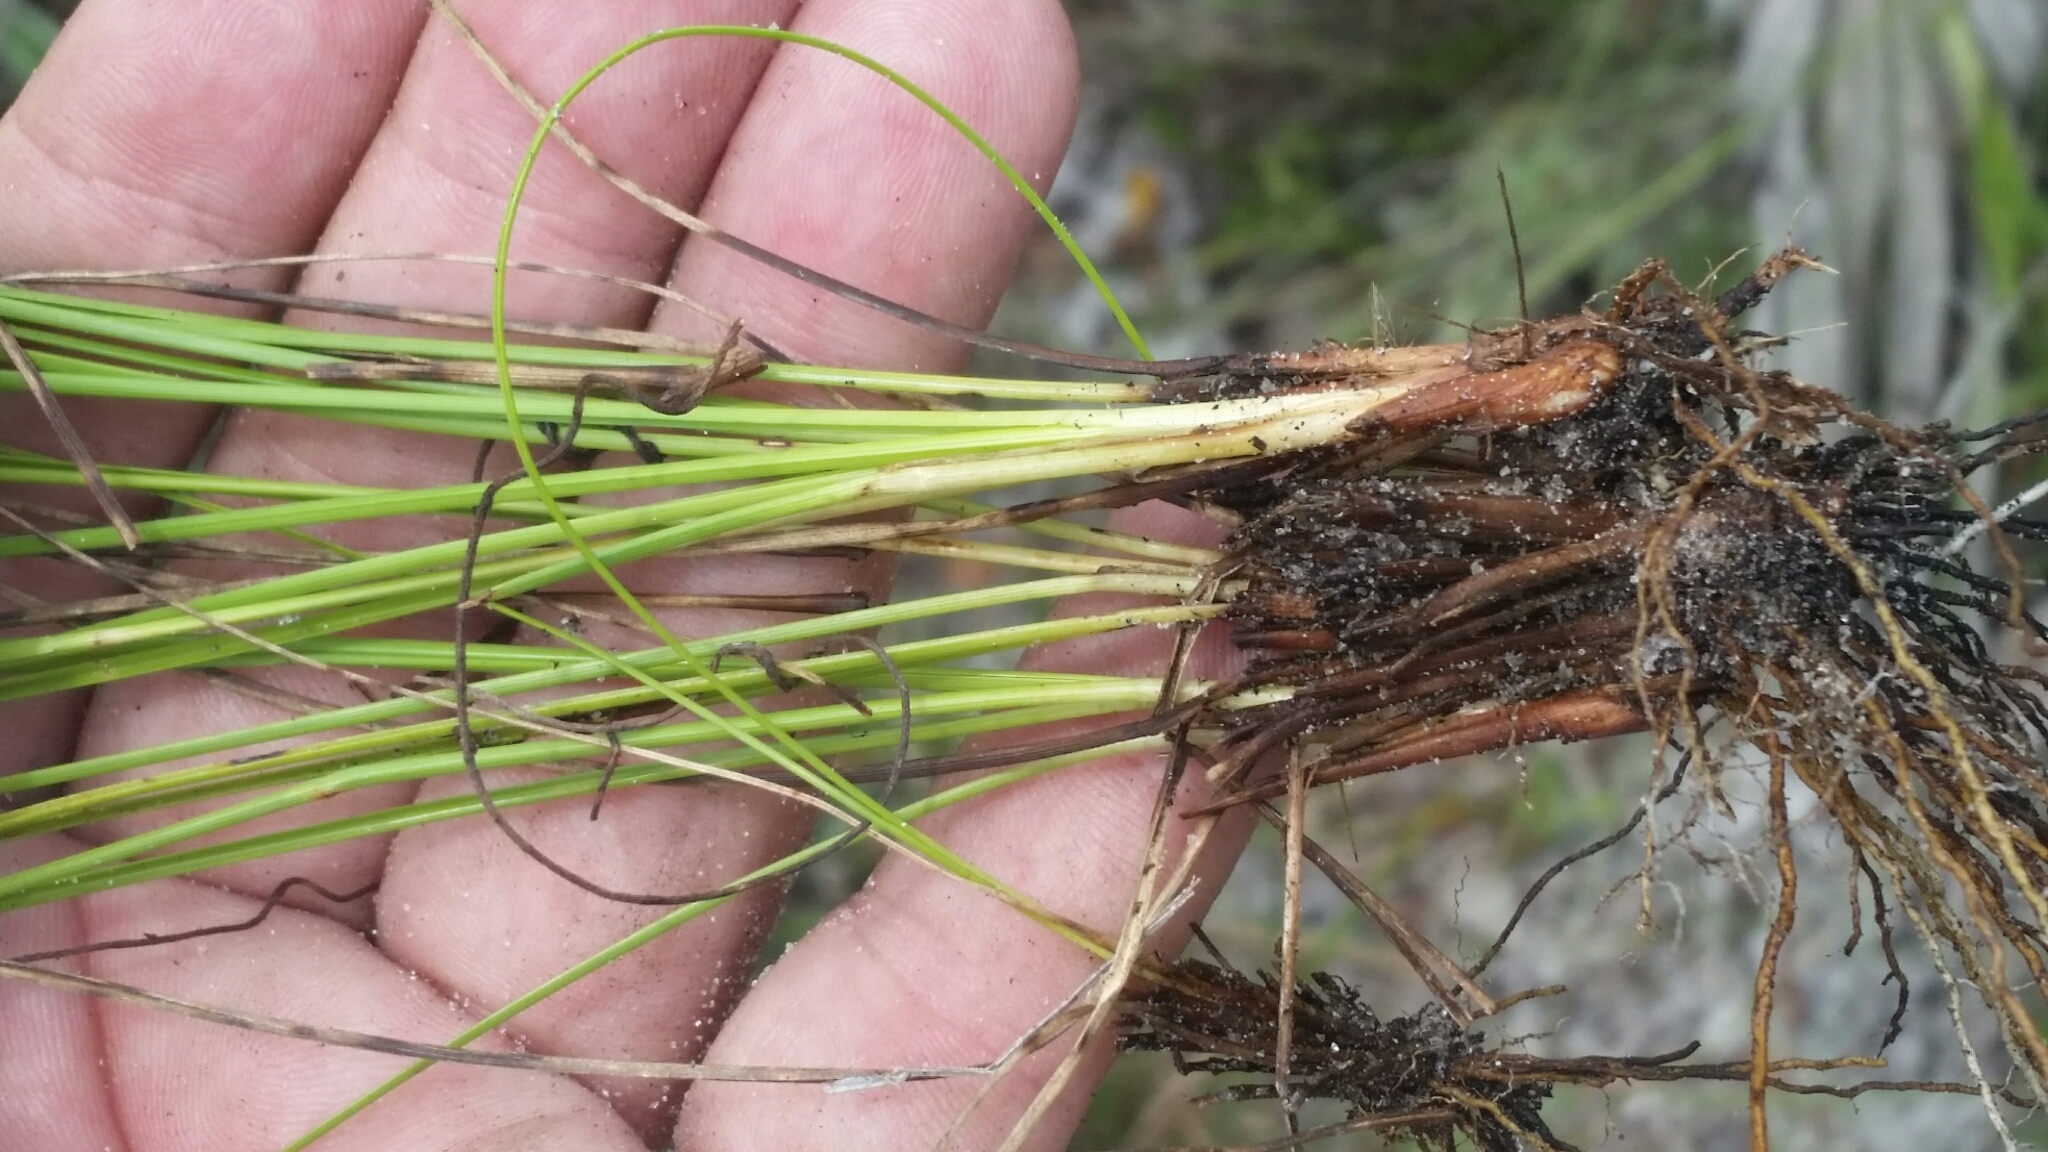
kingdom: Plantae
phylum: Tracheophyta
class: Liliopsida
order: Poales
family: Cyperaceae
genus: Rhynchospora
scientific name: Rhynchospora intermedia
